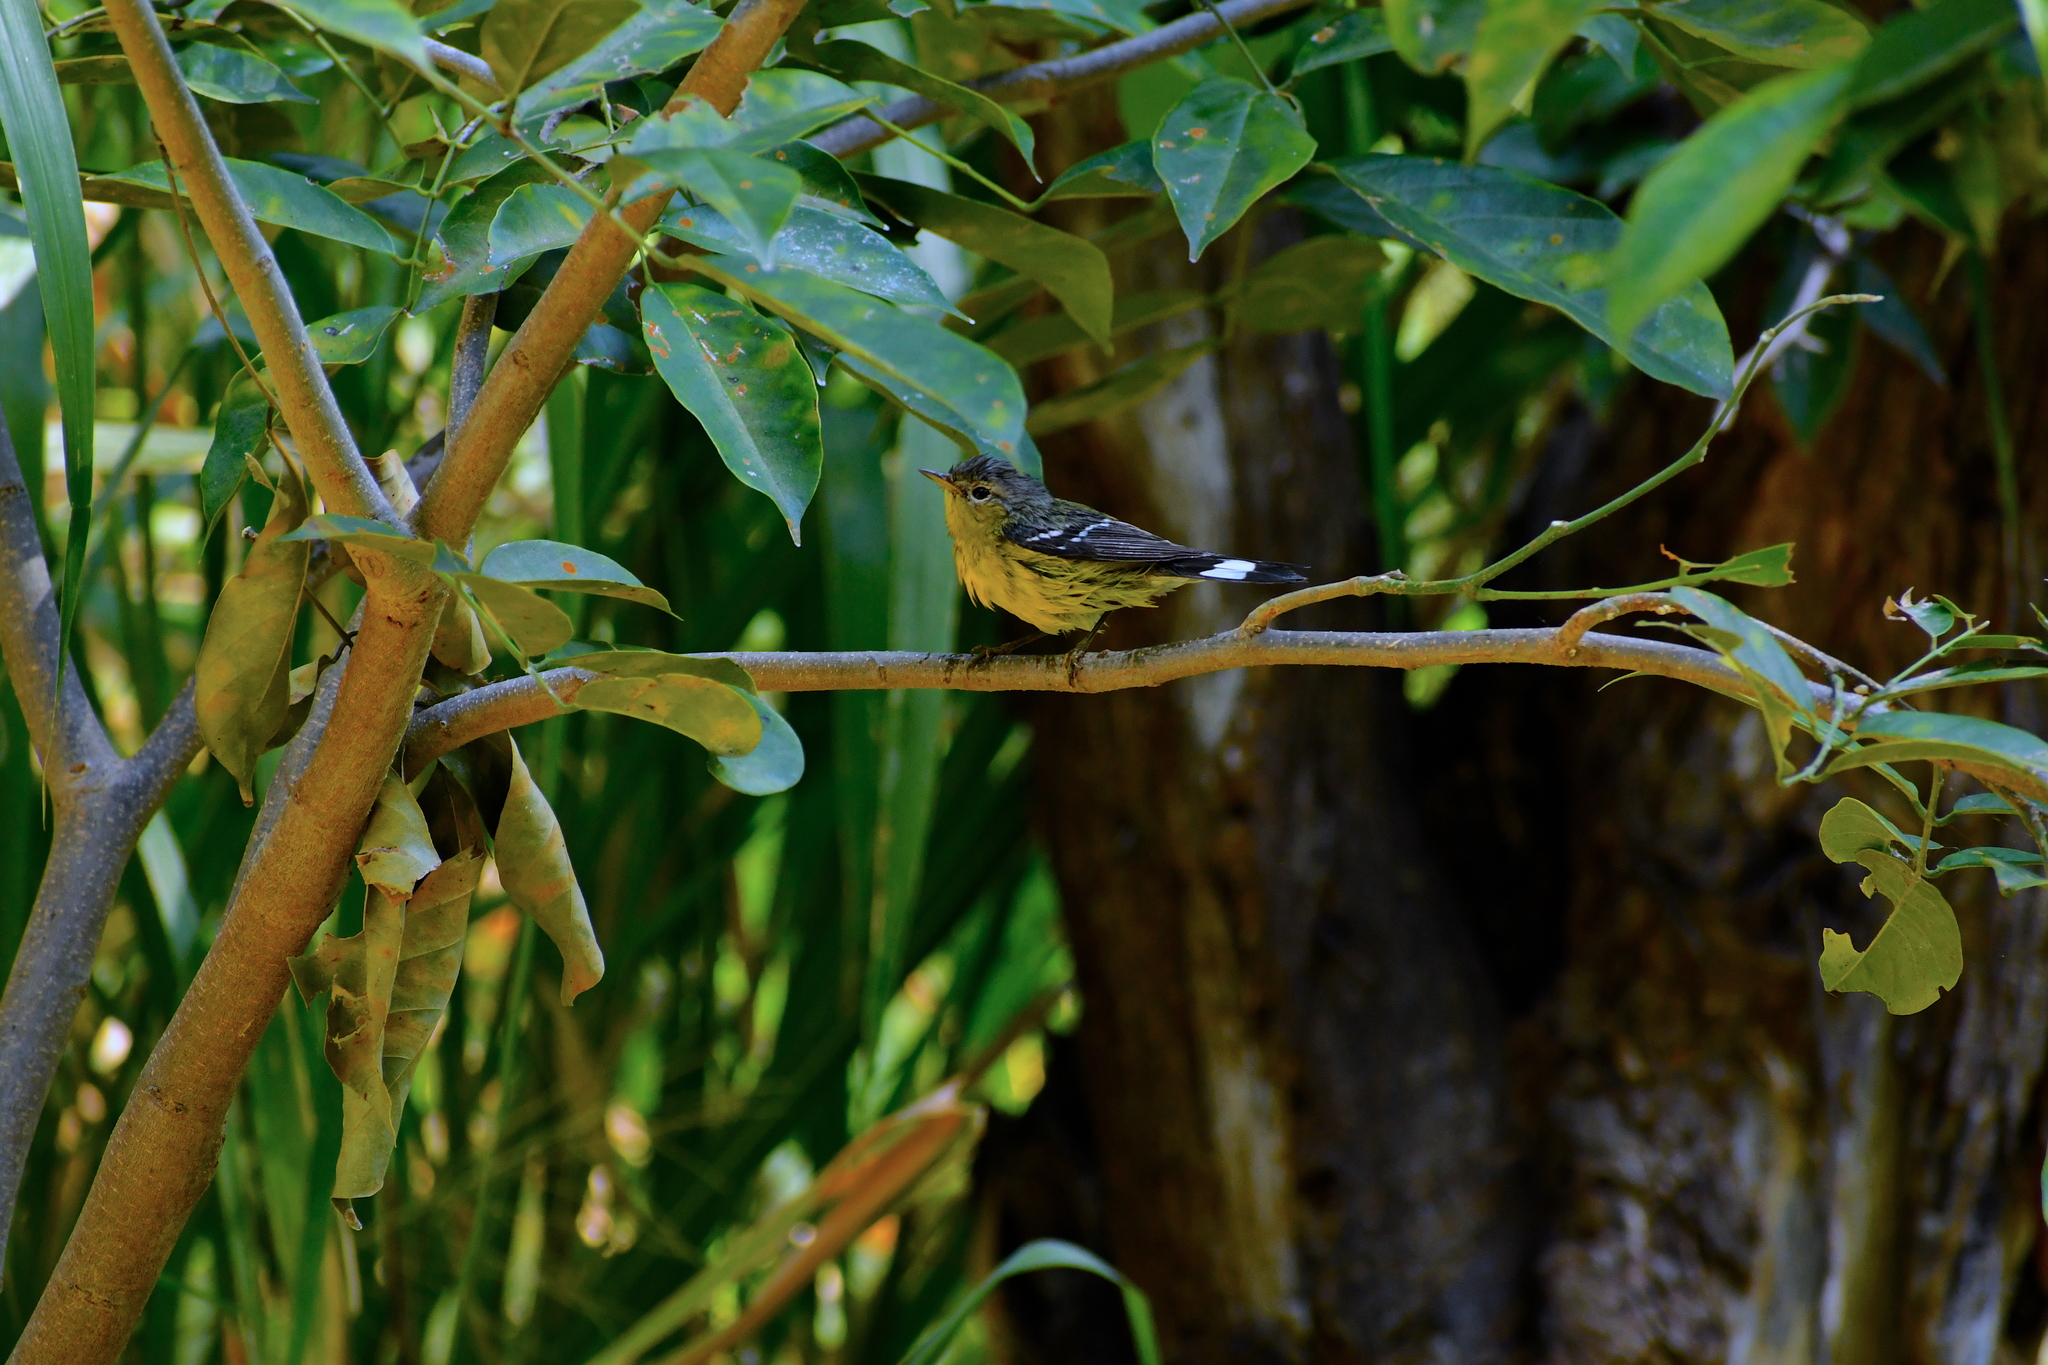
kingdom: Animalia
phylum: Chordata
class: Aves
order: Passeriformes
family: Parulidae
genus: Setophaga
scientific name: Setophaga magnolia
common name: Magnolia warbler
